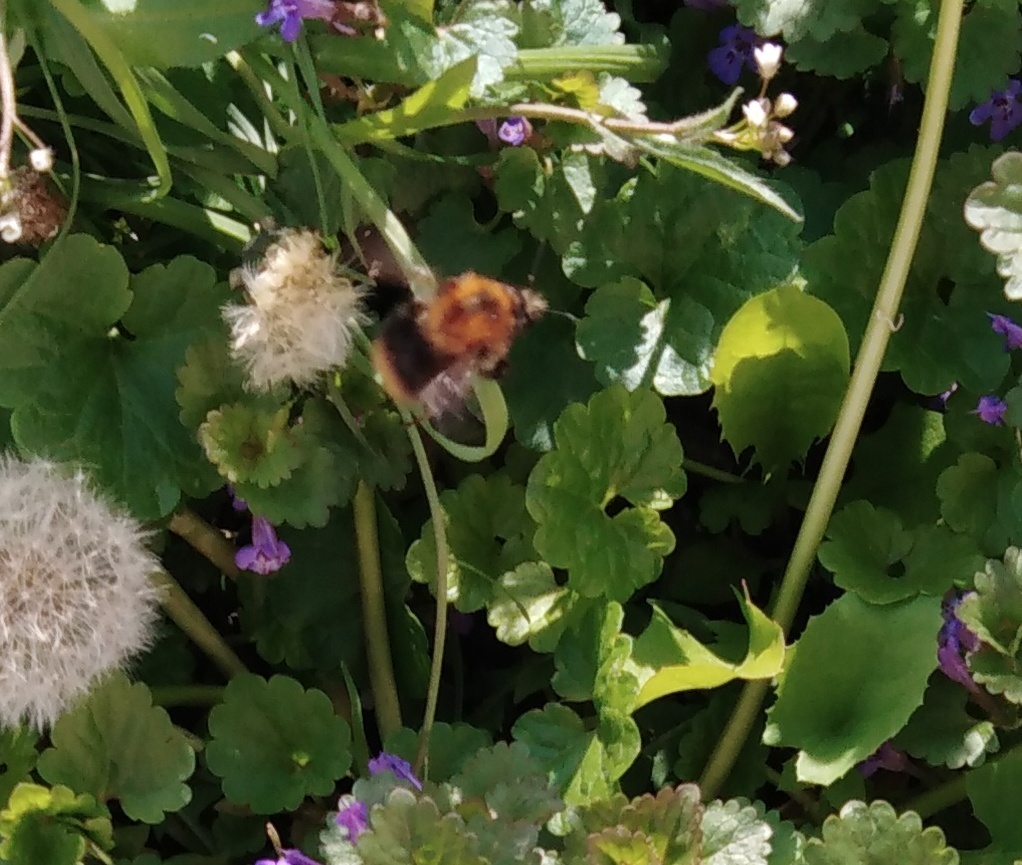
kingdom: Animalia
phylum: Arthropoda
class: Insecta
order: Hymenoptera
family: Apidae
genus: Bombus
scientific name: Bombus pascuorum
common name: Common carder bee
